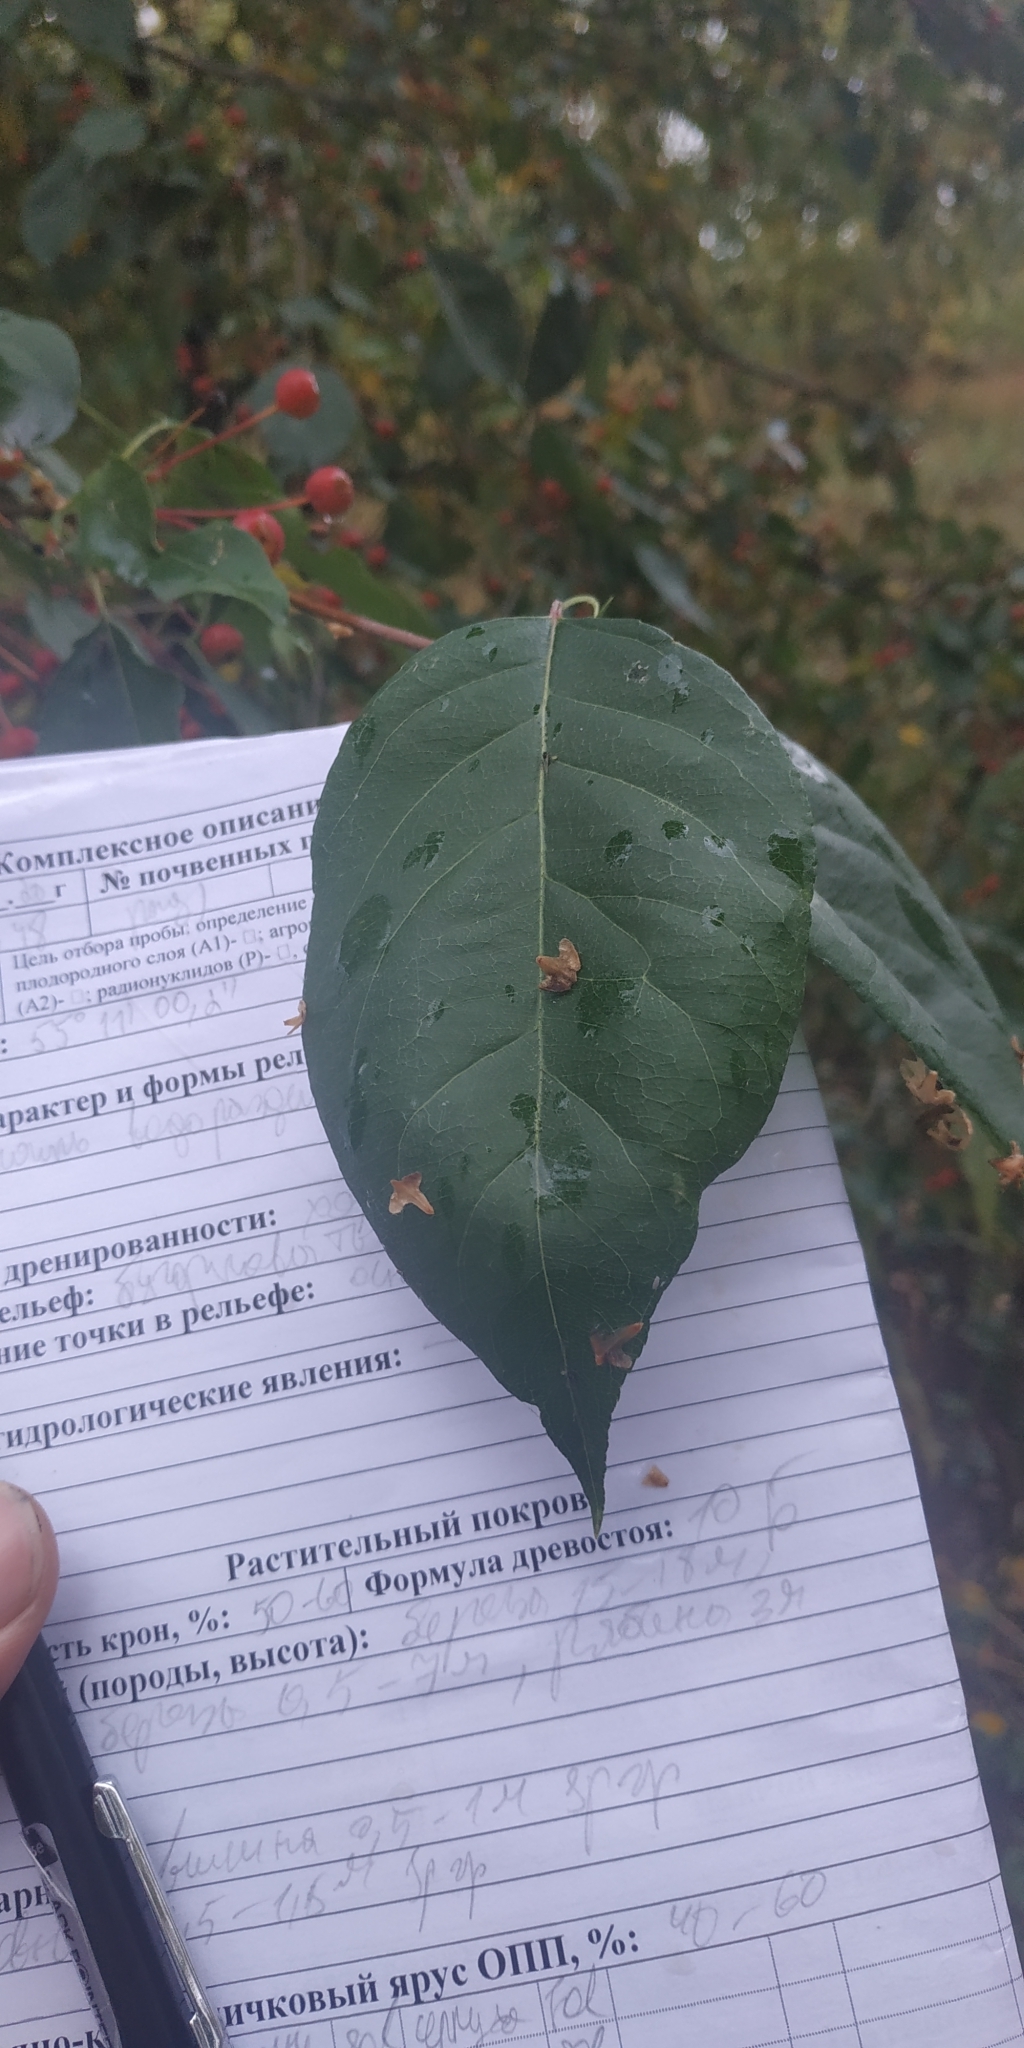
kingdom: Plantae
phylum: Tracheophyta
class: Magnoliopsida
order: Rosales
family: Rosaceae
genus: Malus
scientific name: Malus baccata
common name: Siberian crab
